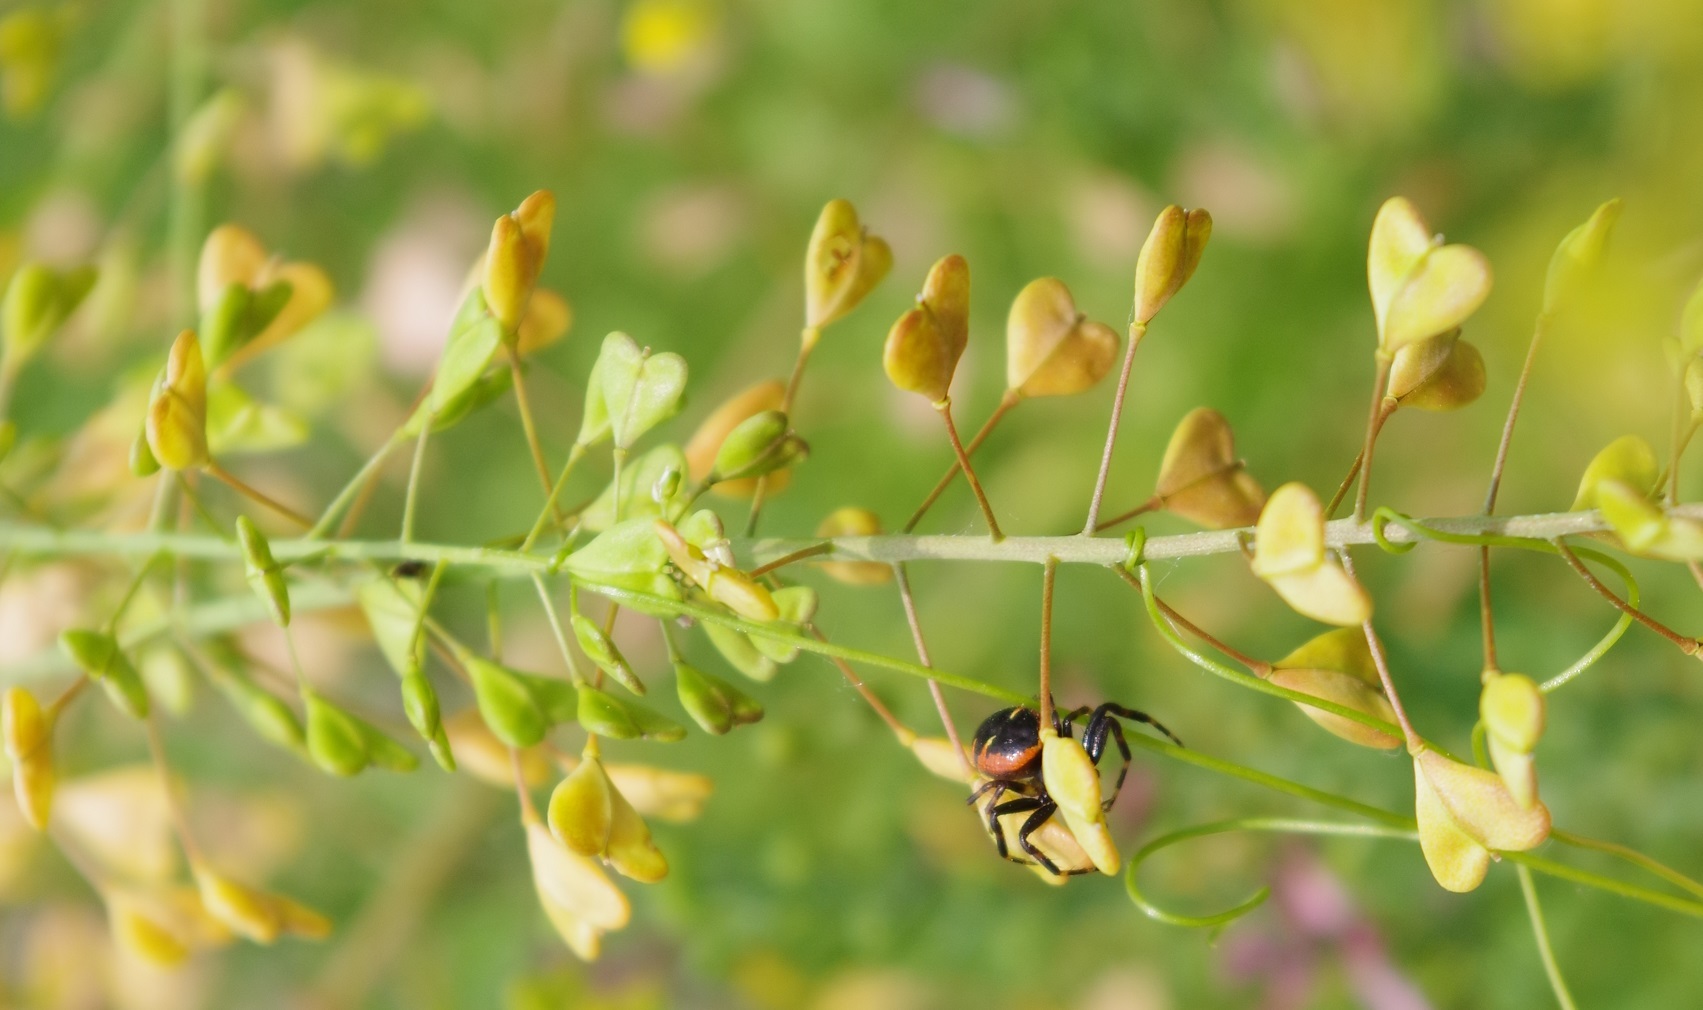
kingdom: Plantae
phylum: Tracheophyta
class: Magnoliopsida
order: Brassicales
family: Brassicaceae
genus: Capsella
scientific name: Capsella bursa-pastoris
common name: Shepherd's purse
